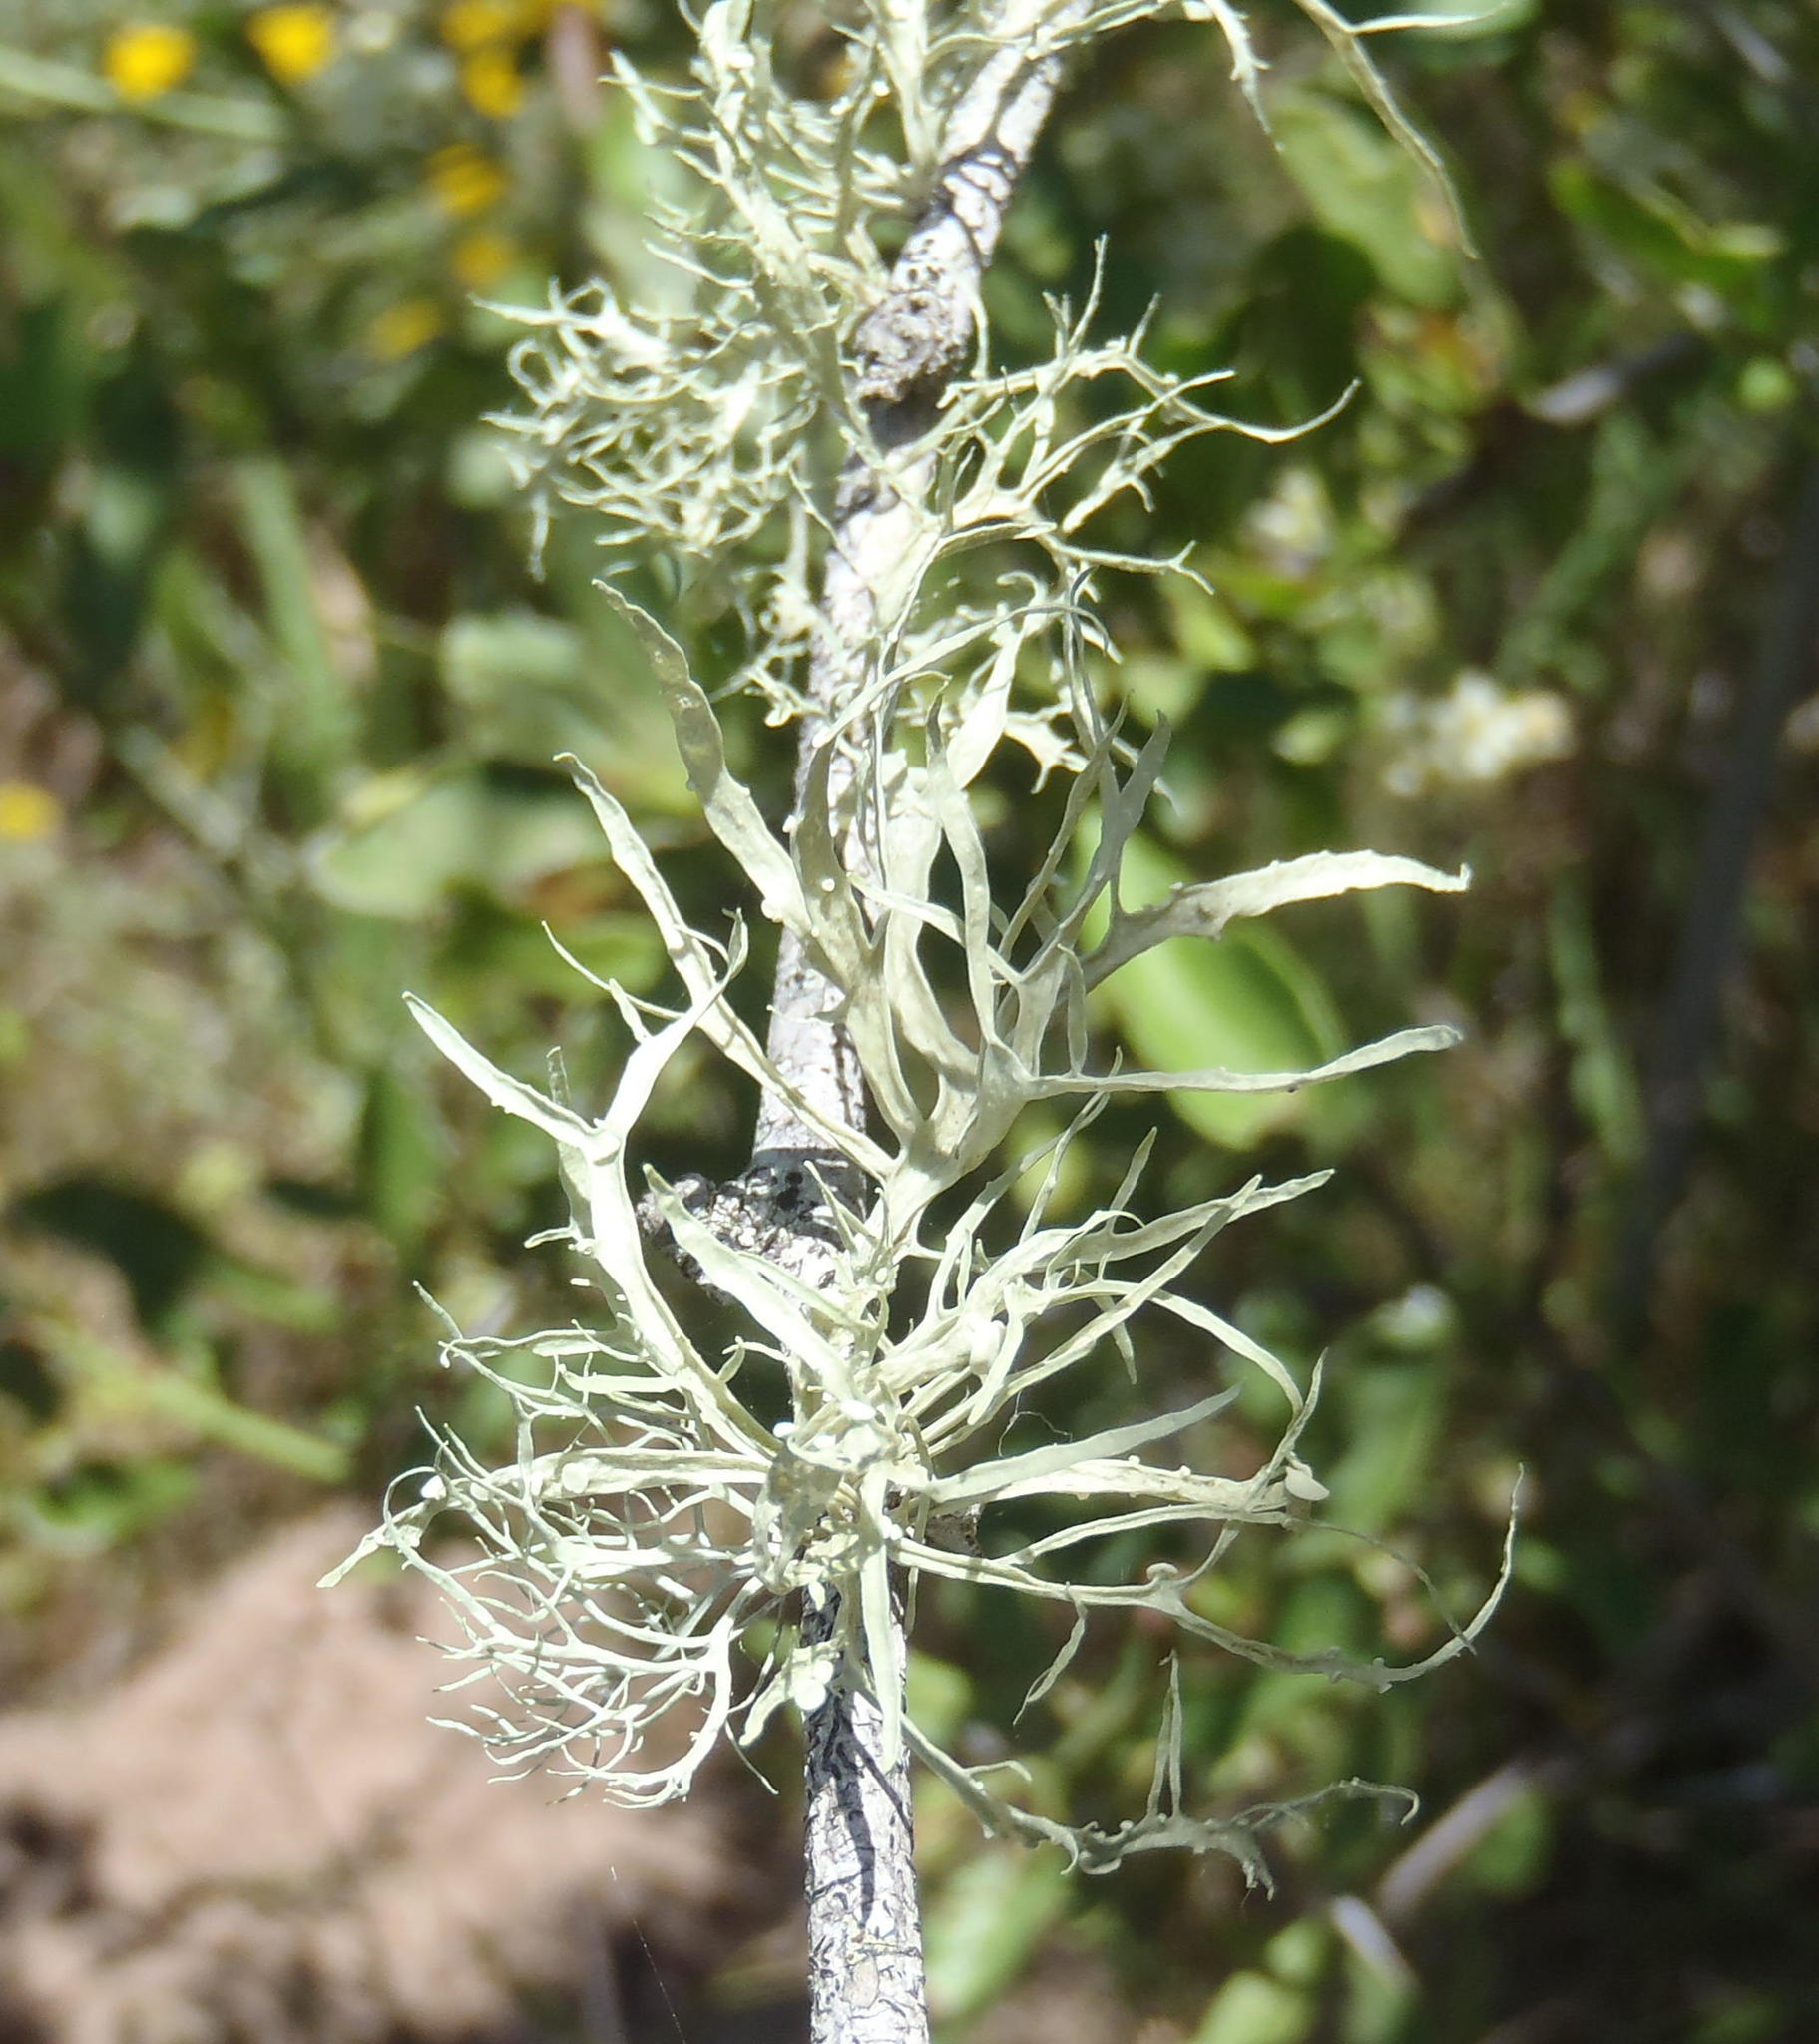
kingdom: Fungi
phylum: Ascomycota
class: Lecanoromycetes
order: Lecanorales
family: Ramalinaceae
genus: Ramalina
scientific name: Ramalina celastri
